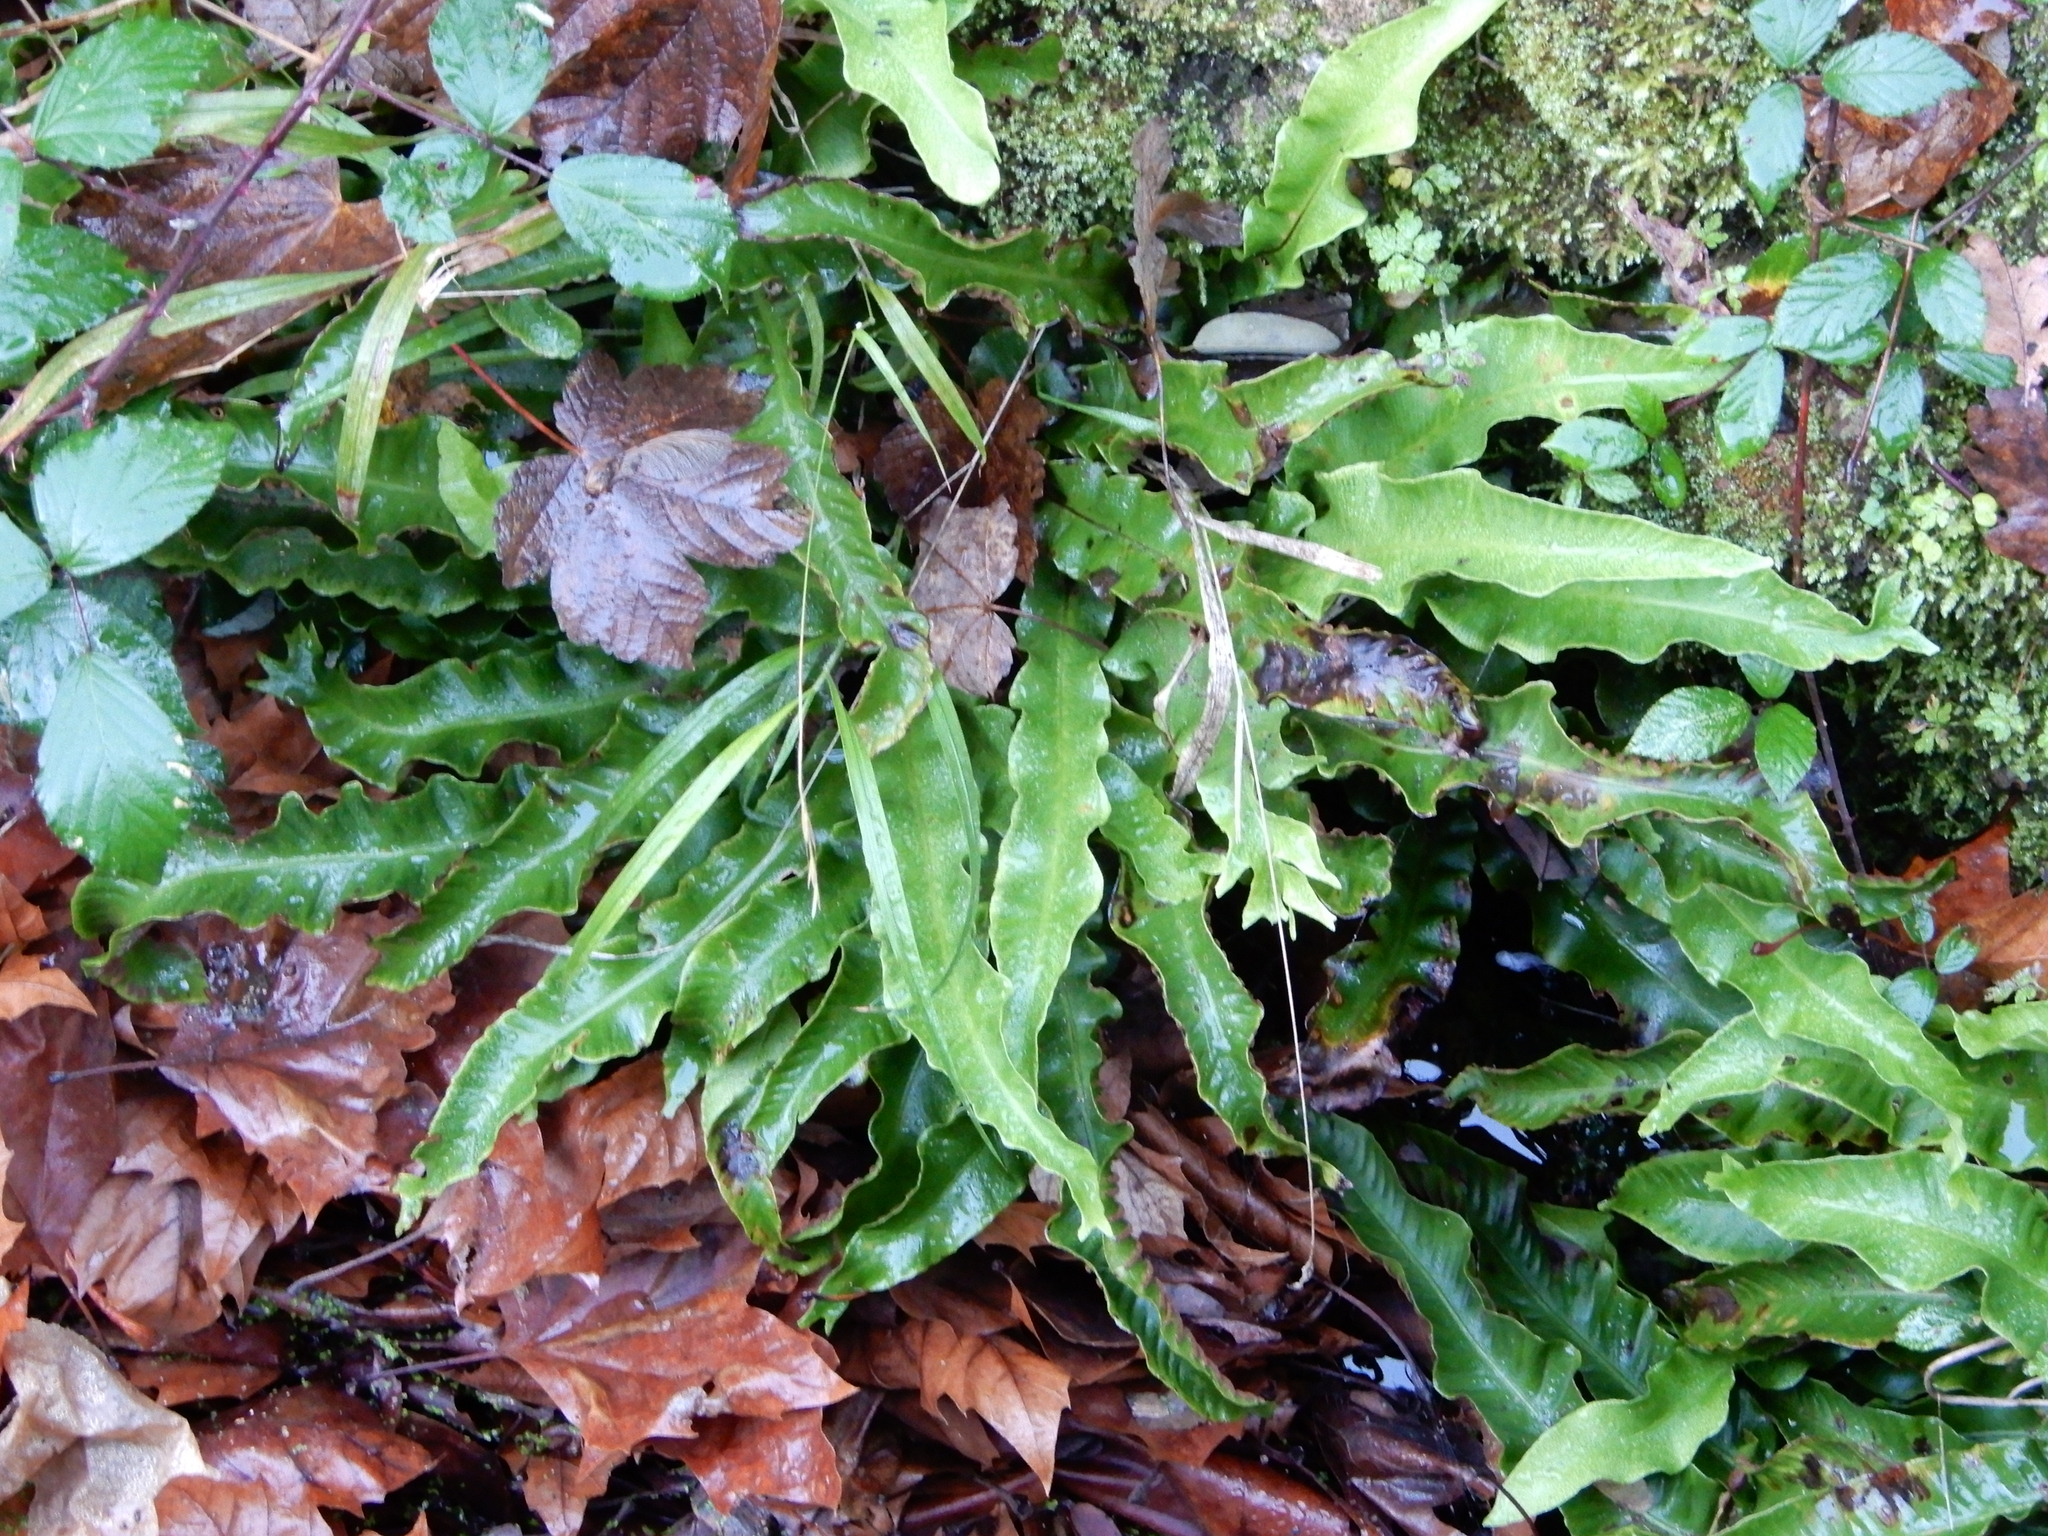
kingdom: Plantae
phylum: Tracheophyta
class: Polypodiopsida
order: Polypodiales
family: Aspleniaceae
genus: Asplenium
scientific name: Asplenium scolopendrium
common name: Hart's-tongue fern
